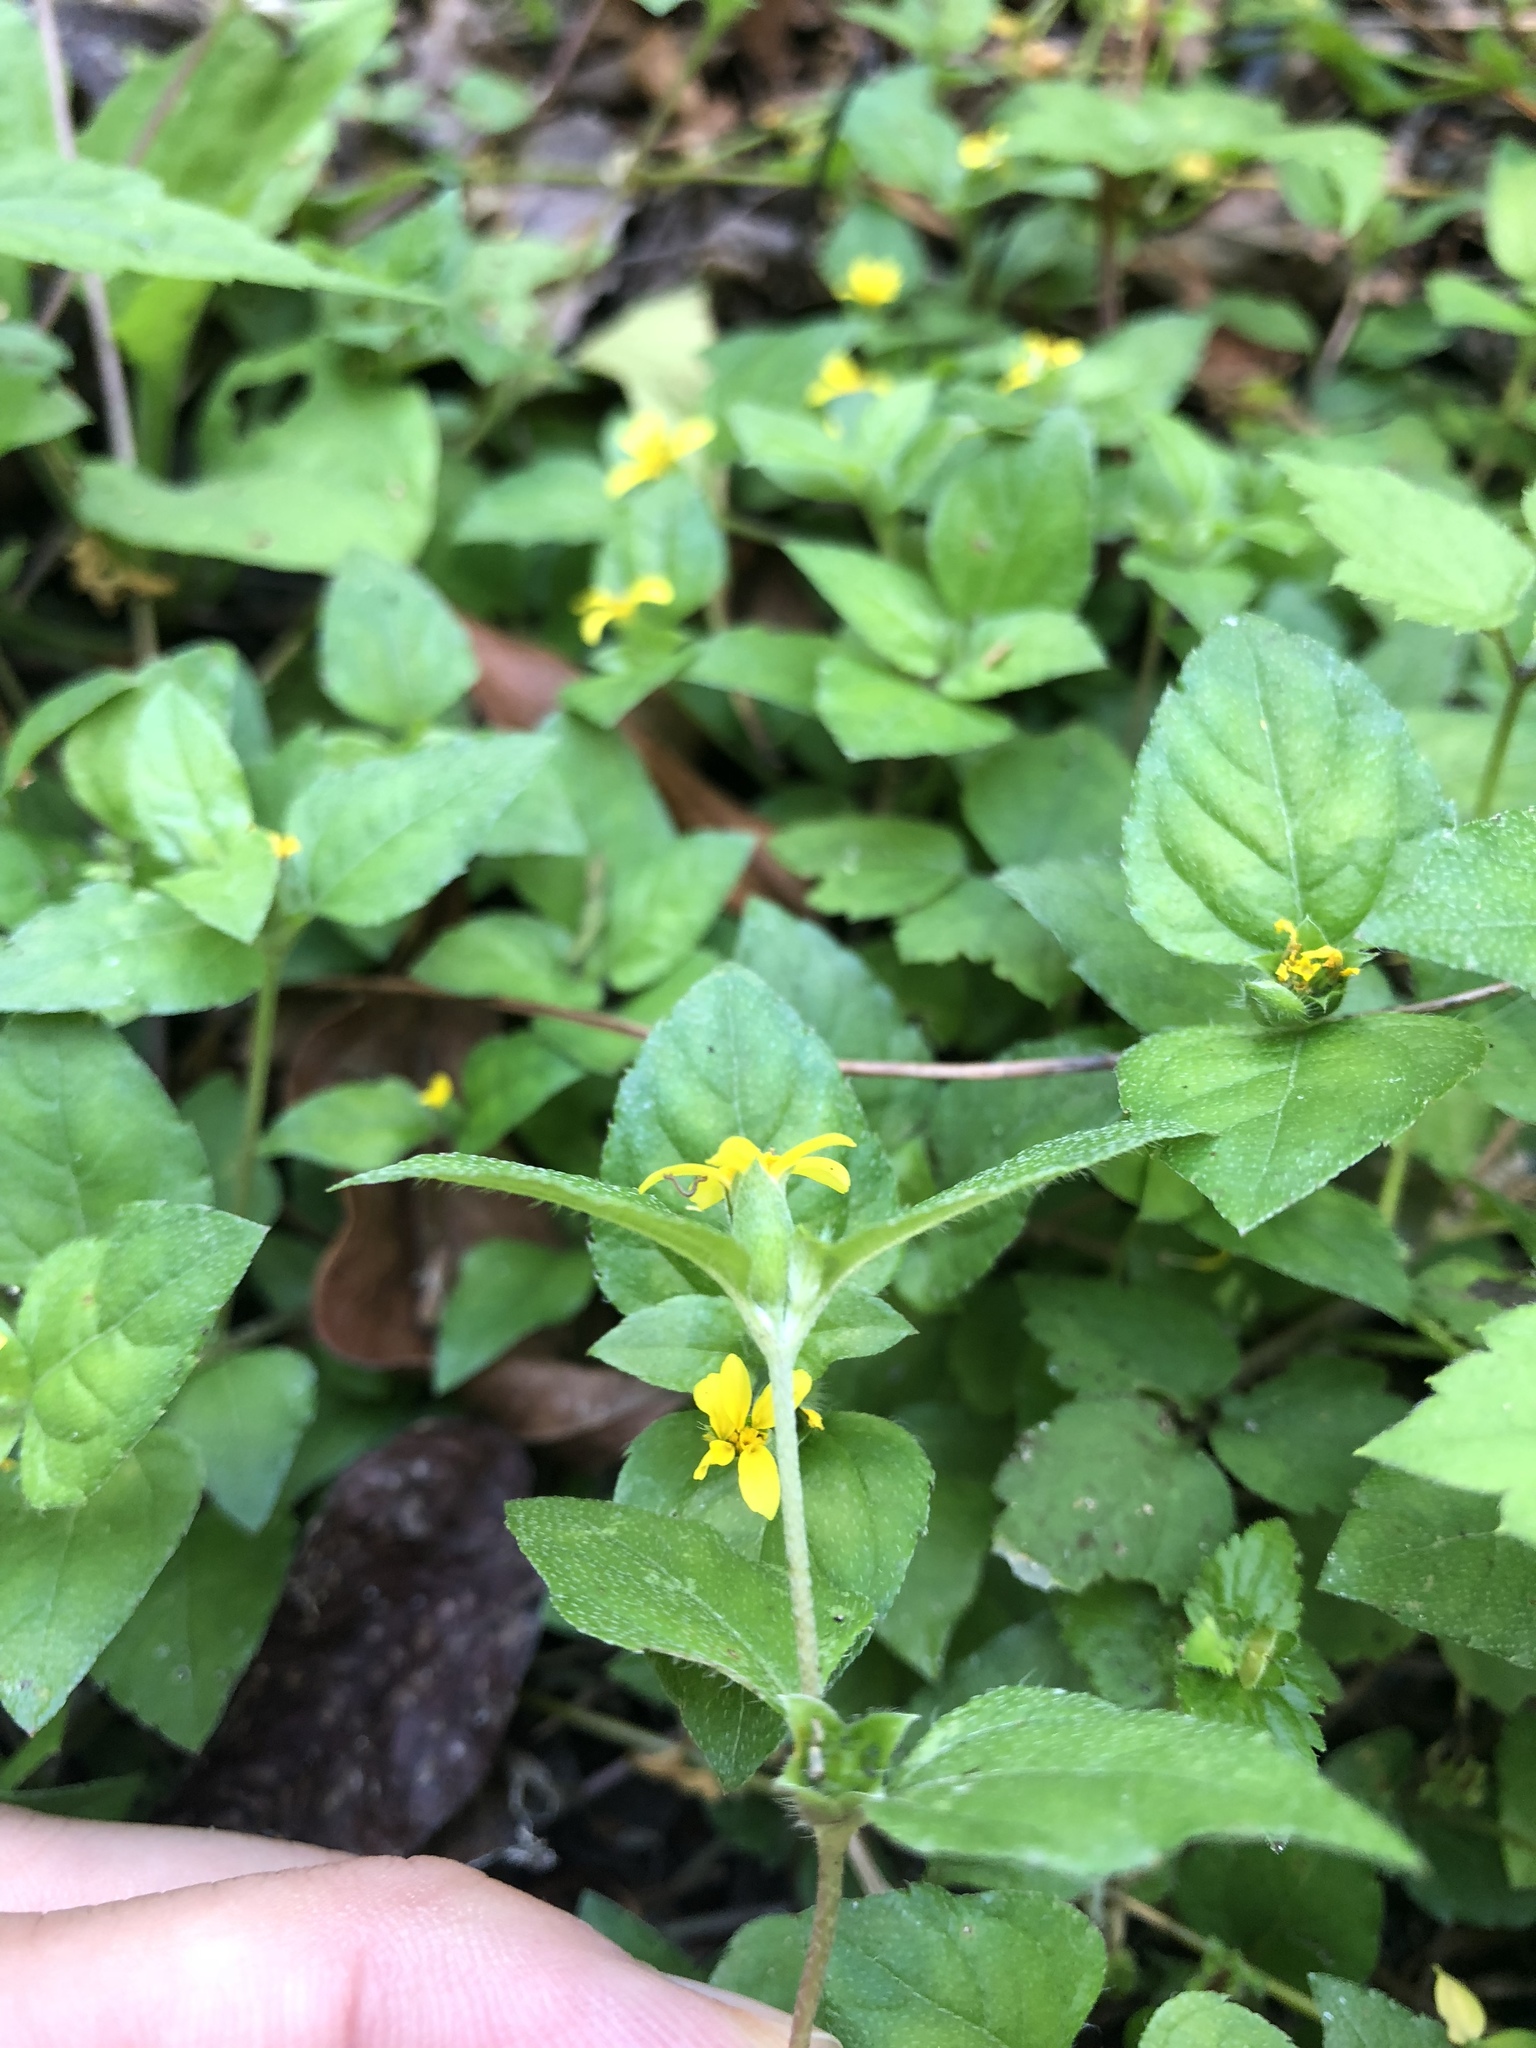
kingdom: Plantae
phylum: Tracheophyta
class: Magnoliopsida
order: Asterales
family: Asteraceae
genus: Calyptocarpus
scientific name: Calyptocarpus vialis
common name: Straggler daisy
